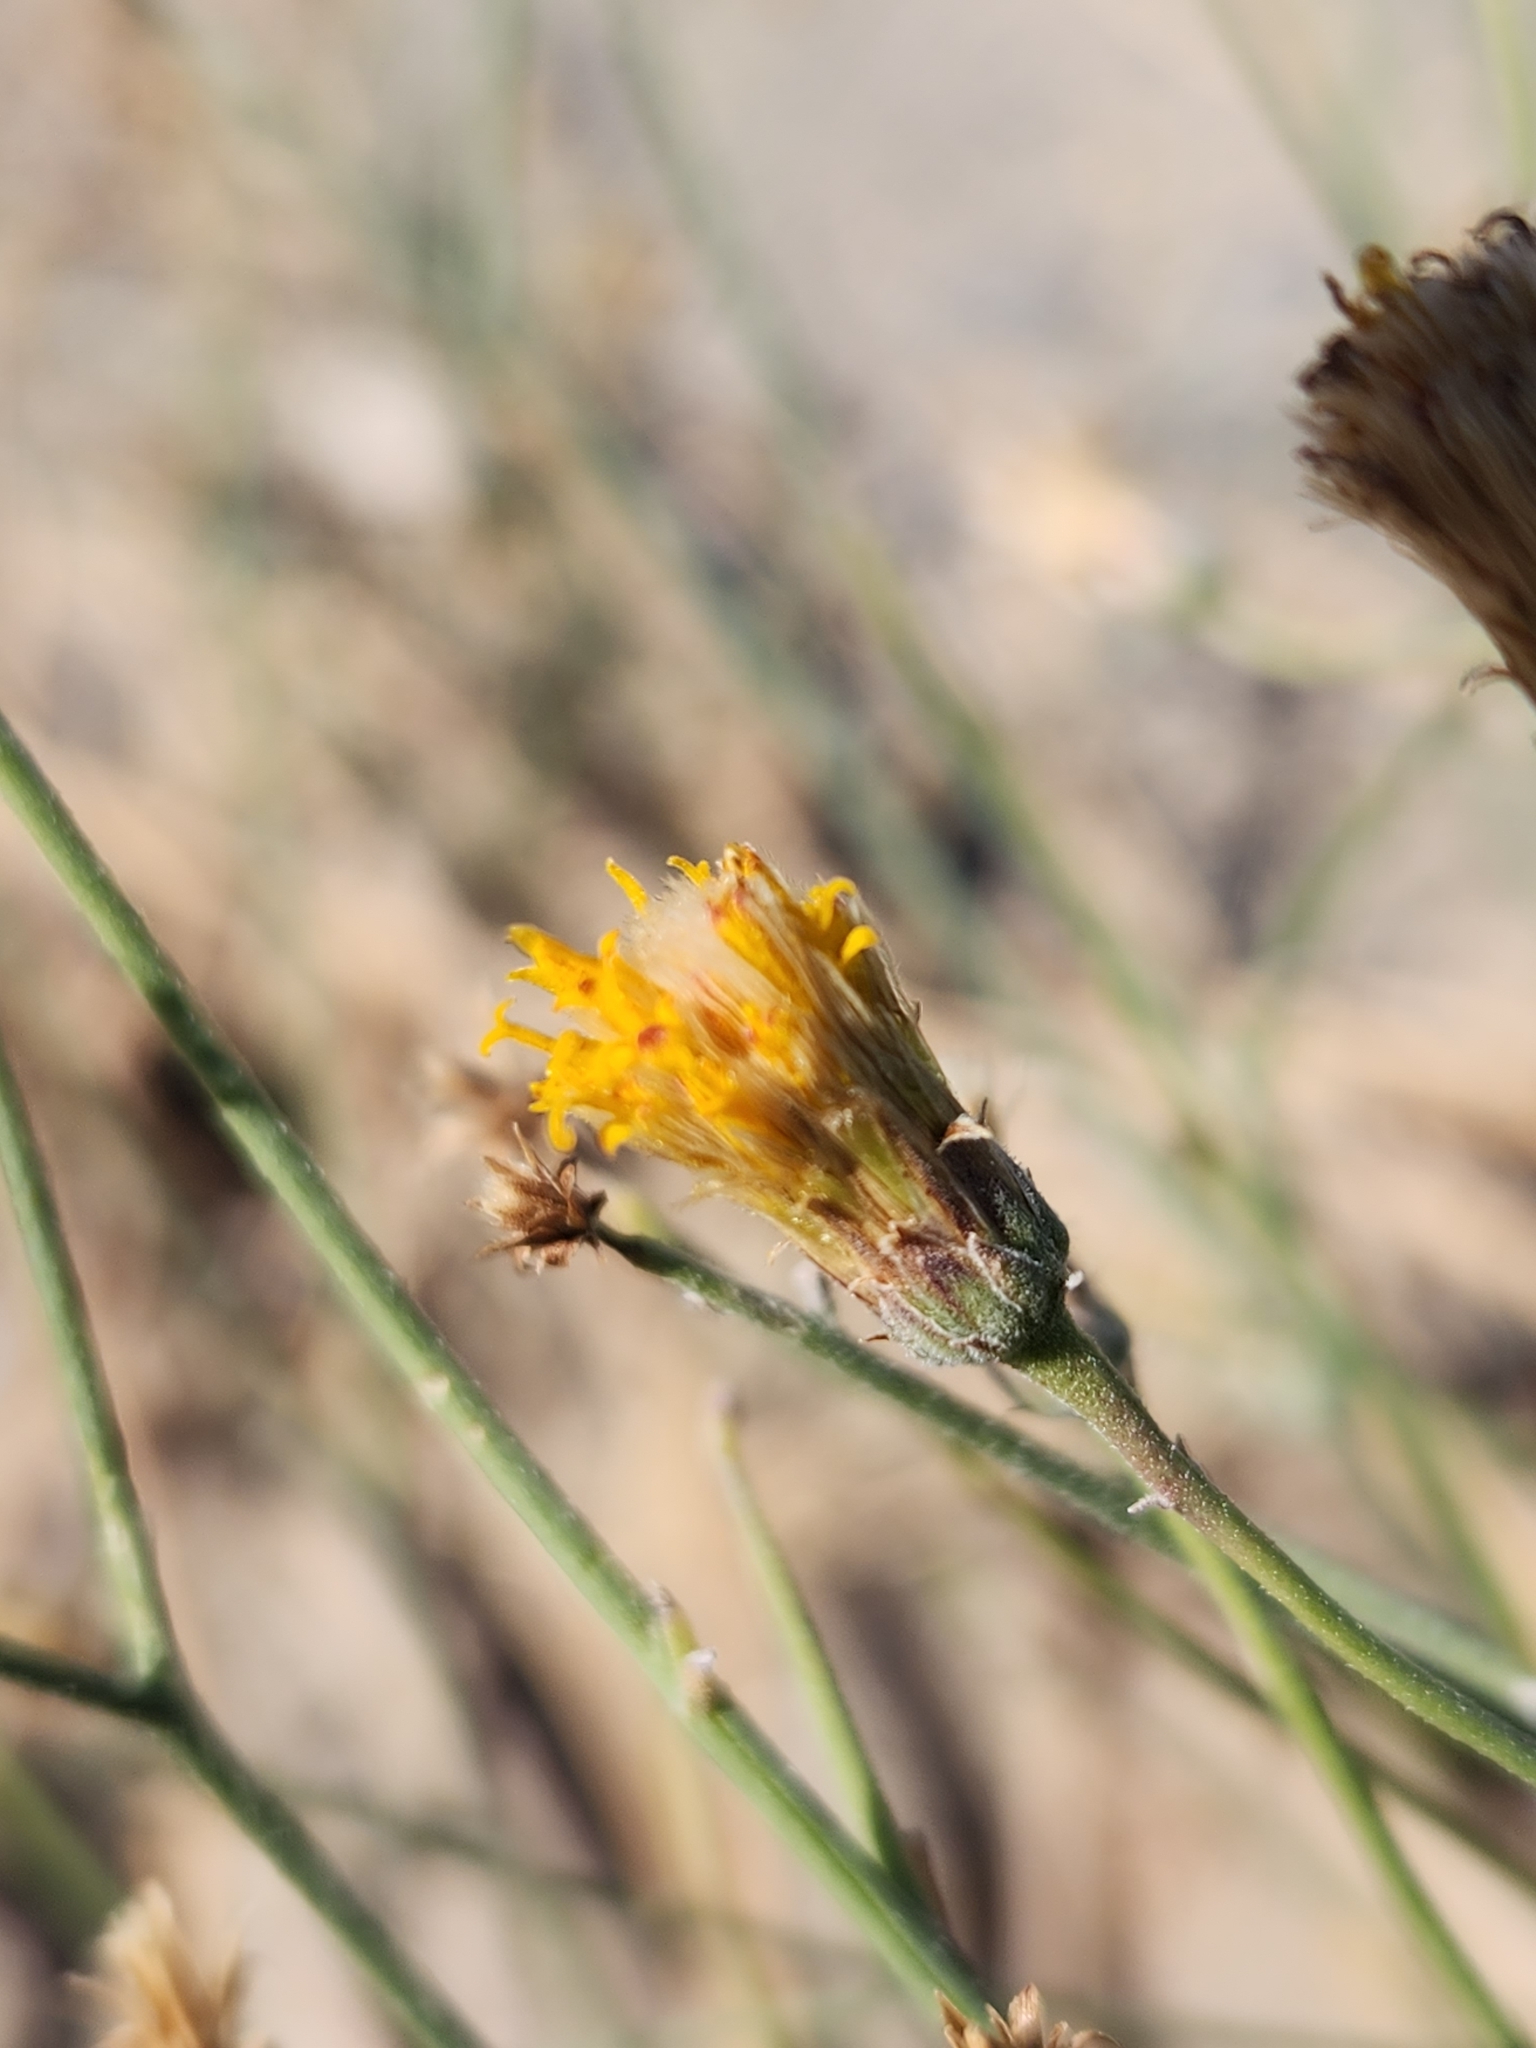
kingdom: Plantae
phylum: Tracheophyta
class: Magnoliopsida
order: Asterales
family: Asteraceae
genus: Bebbia
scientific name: Bebbia juncea
